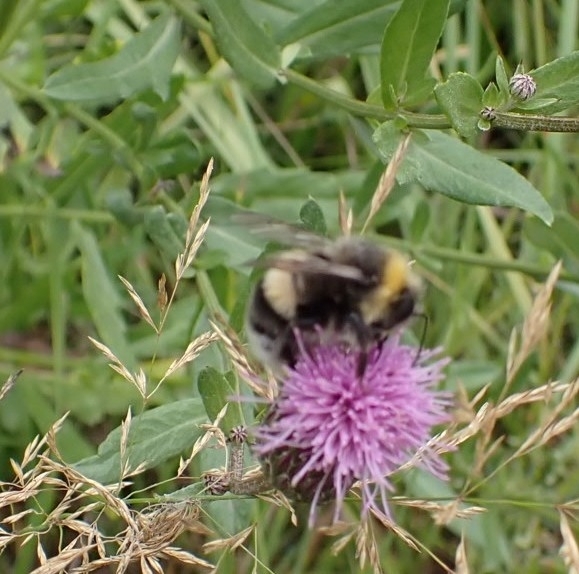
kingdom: Animalia
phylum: Arthropoda
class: Insecta
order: Hymenoptera
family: Apidae
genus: Bombus
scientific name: Bombus lucorum
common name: White-tailed bumblebee
